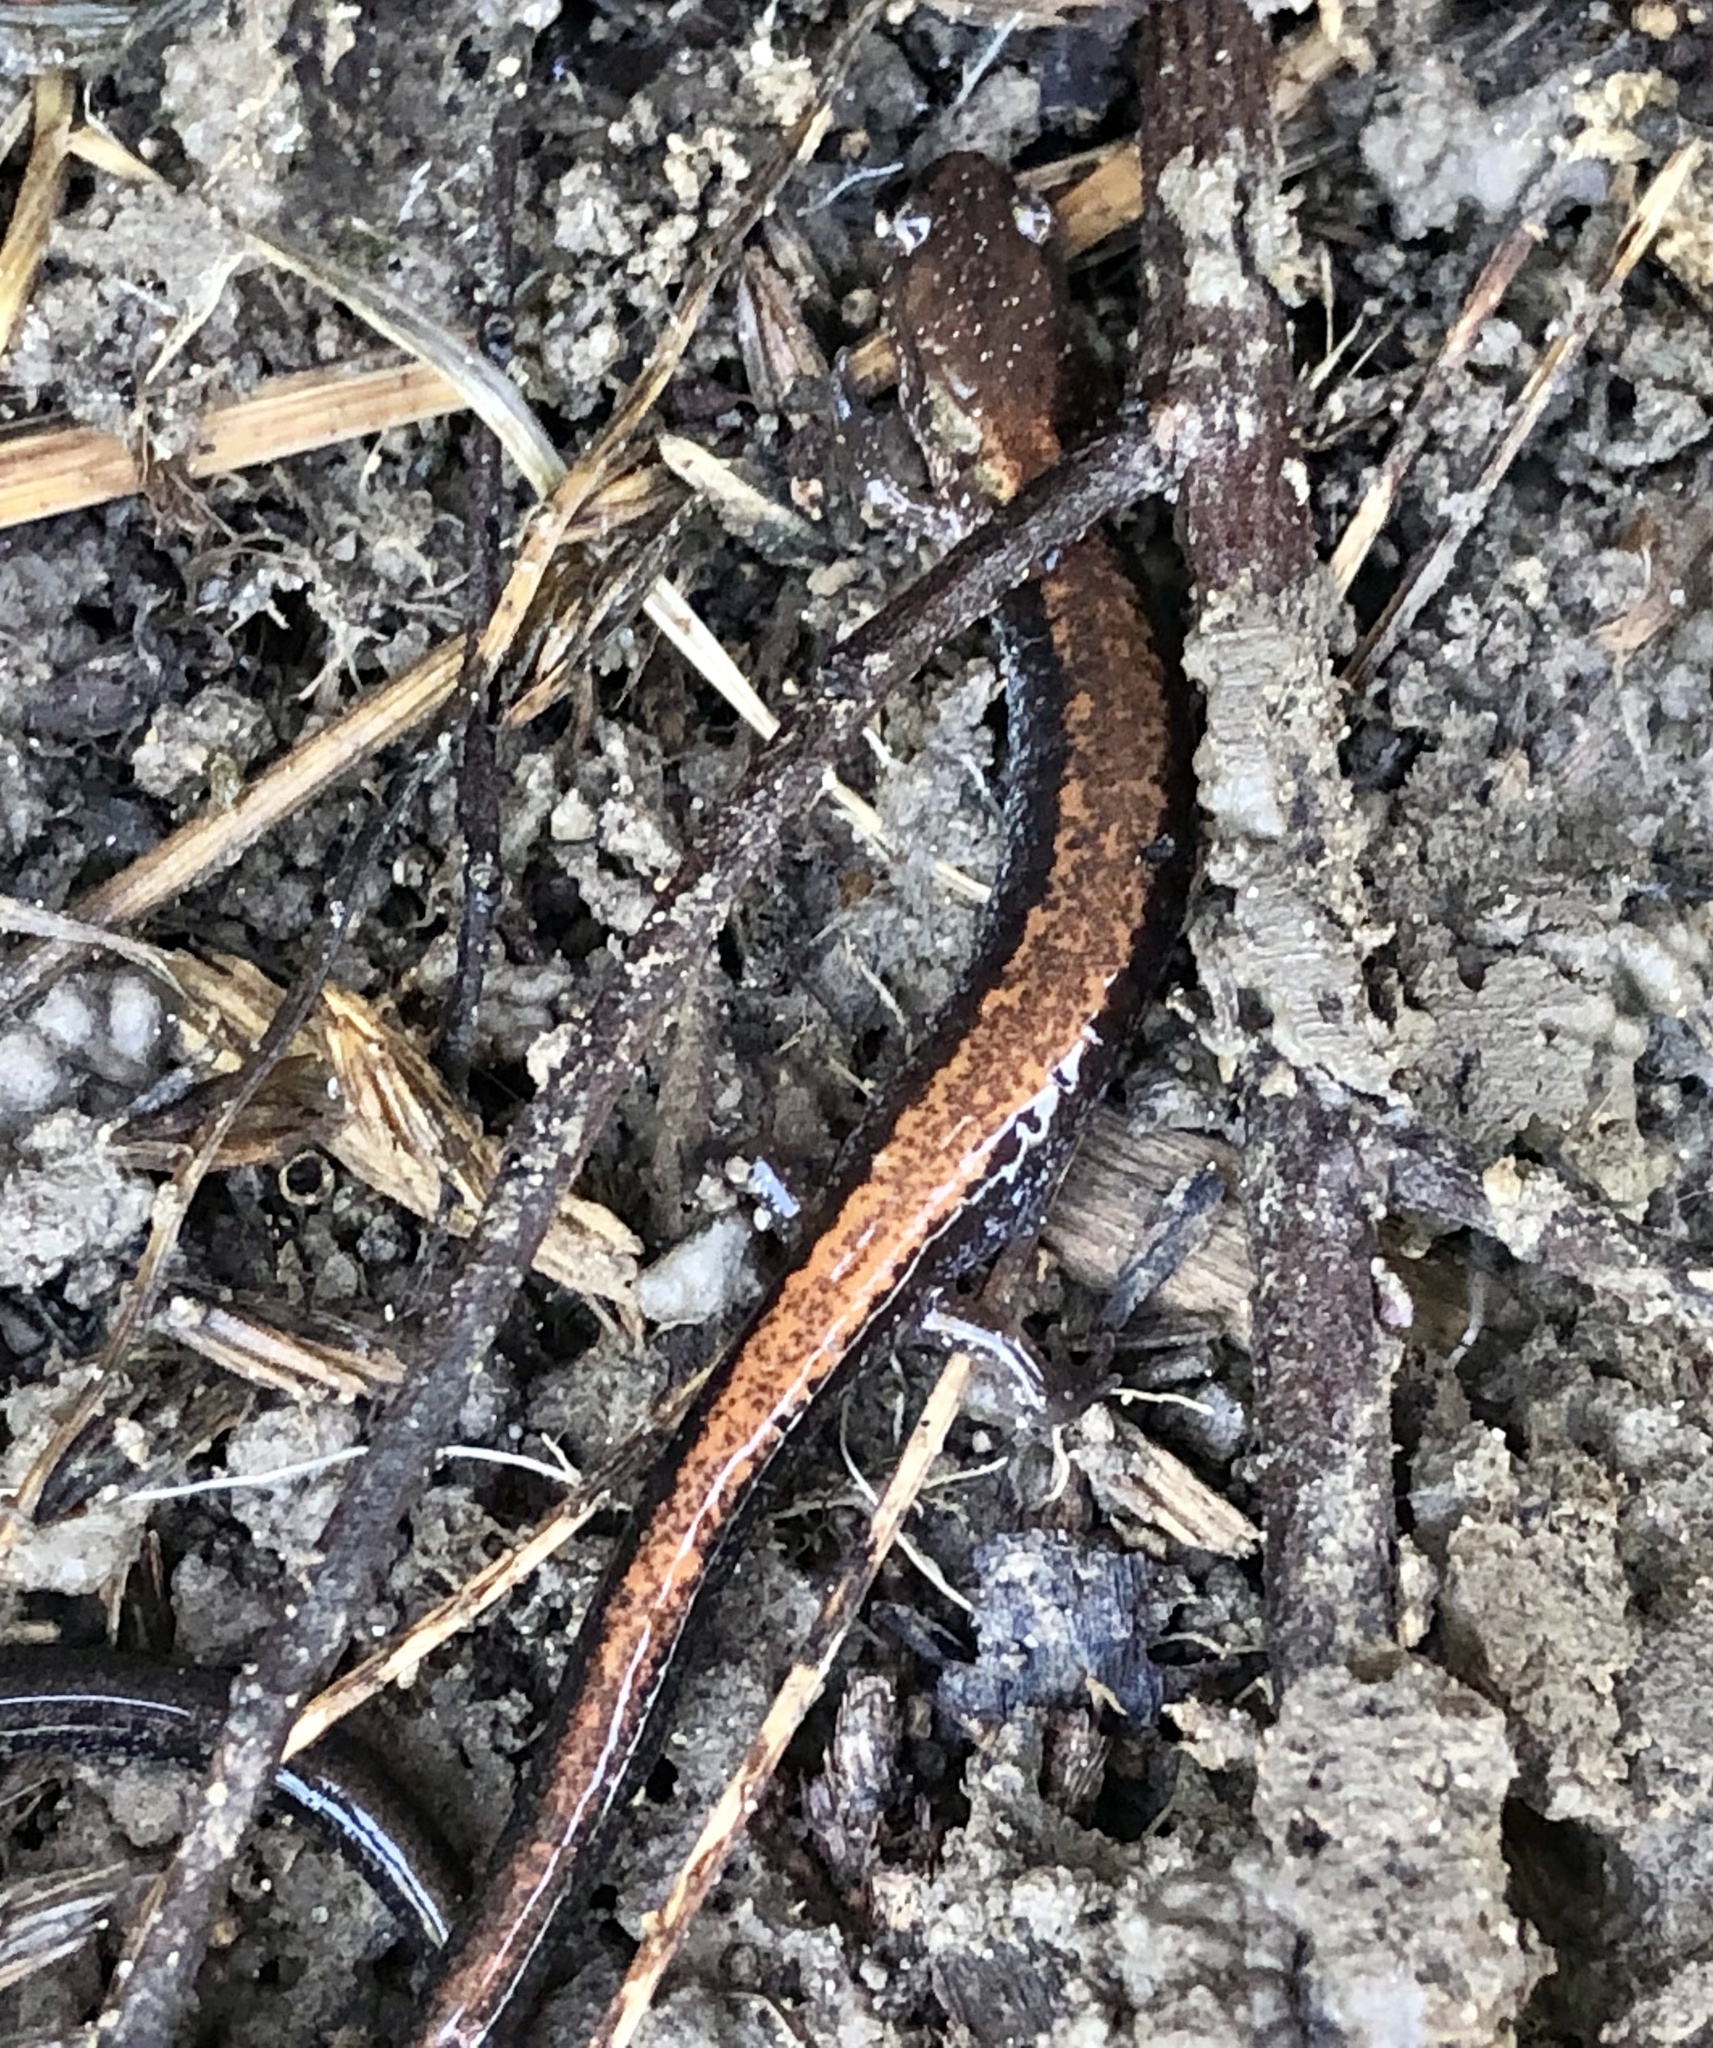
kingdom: Animalia
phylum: Chordata
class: Amphibia
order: Caudata
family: Plethodontidae
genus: Plethodon
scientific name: Plethodon cinereus
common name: Redback salamander
